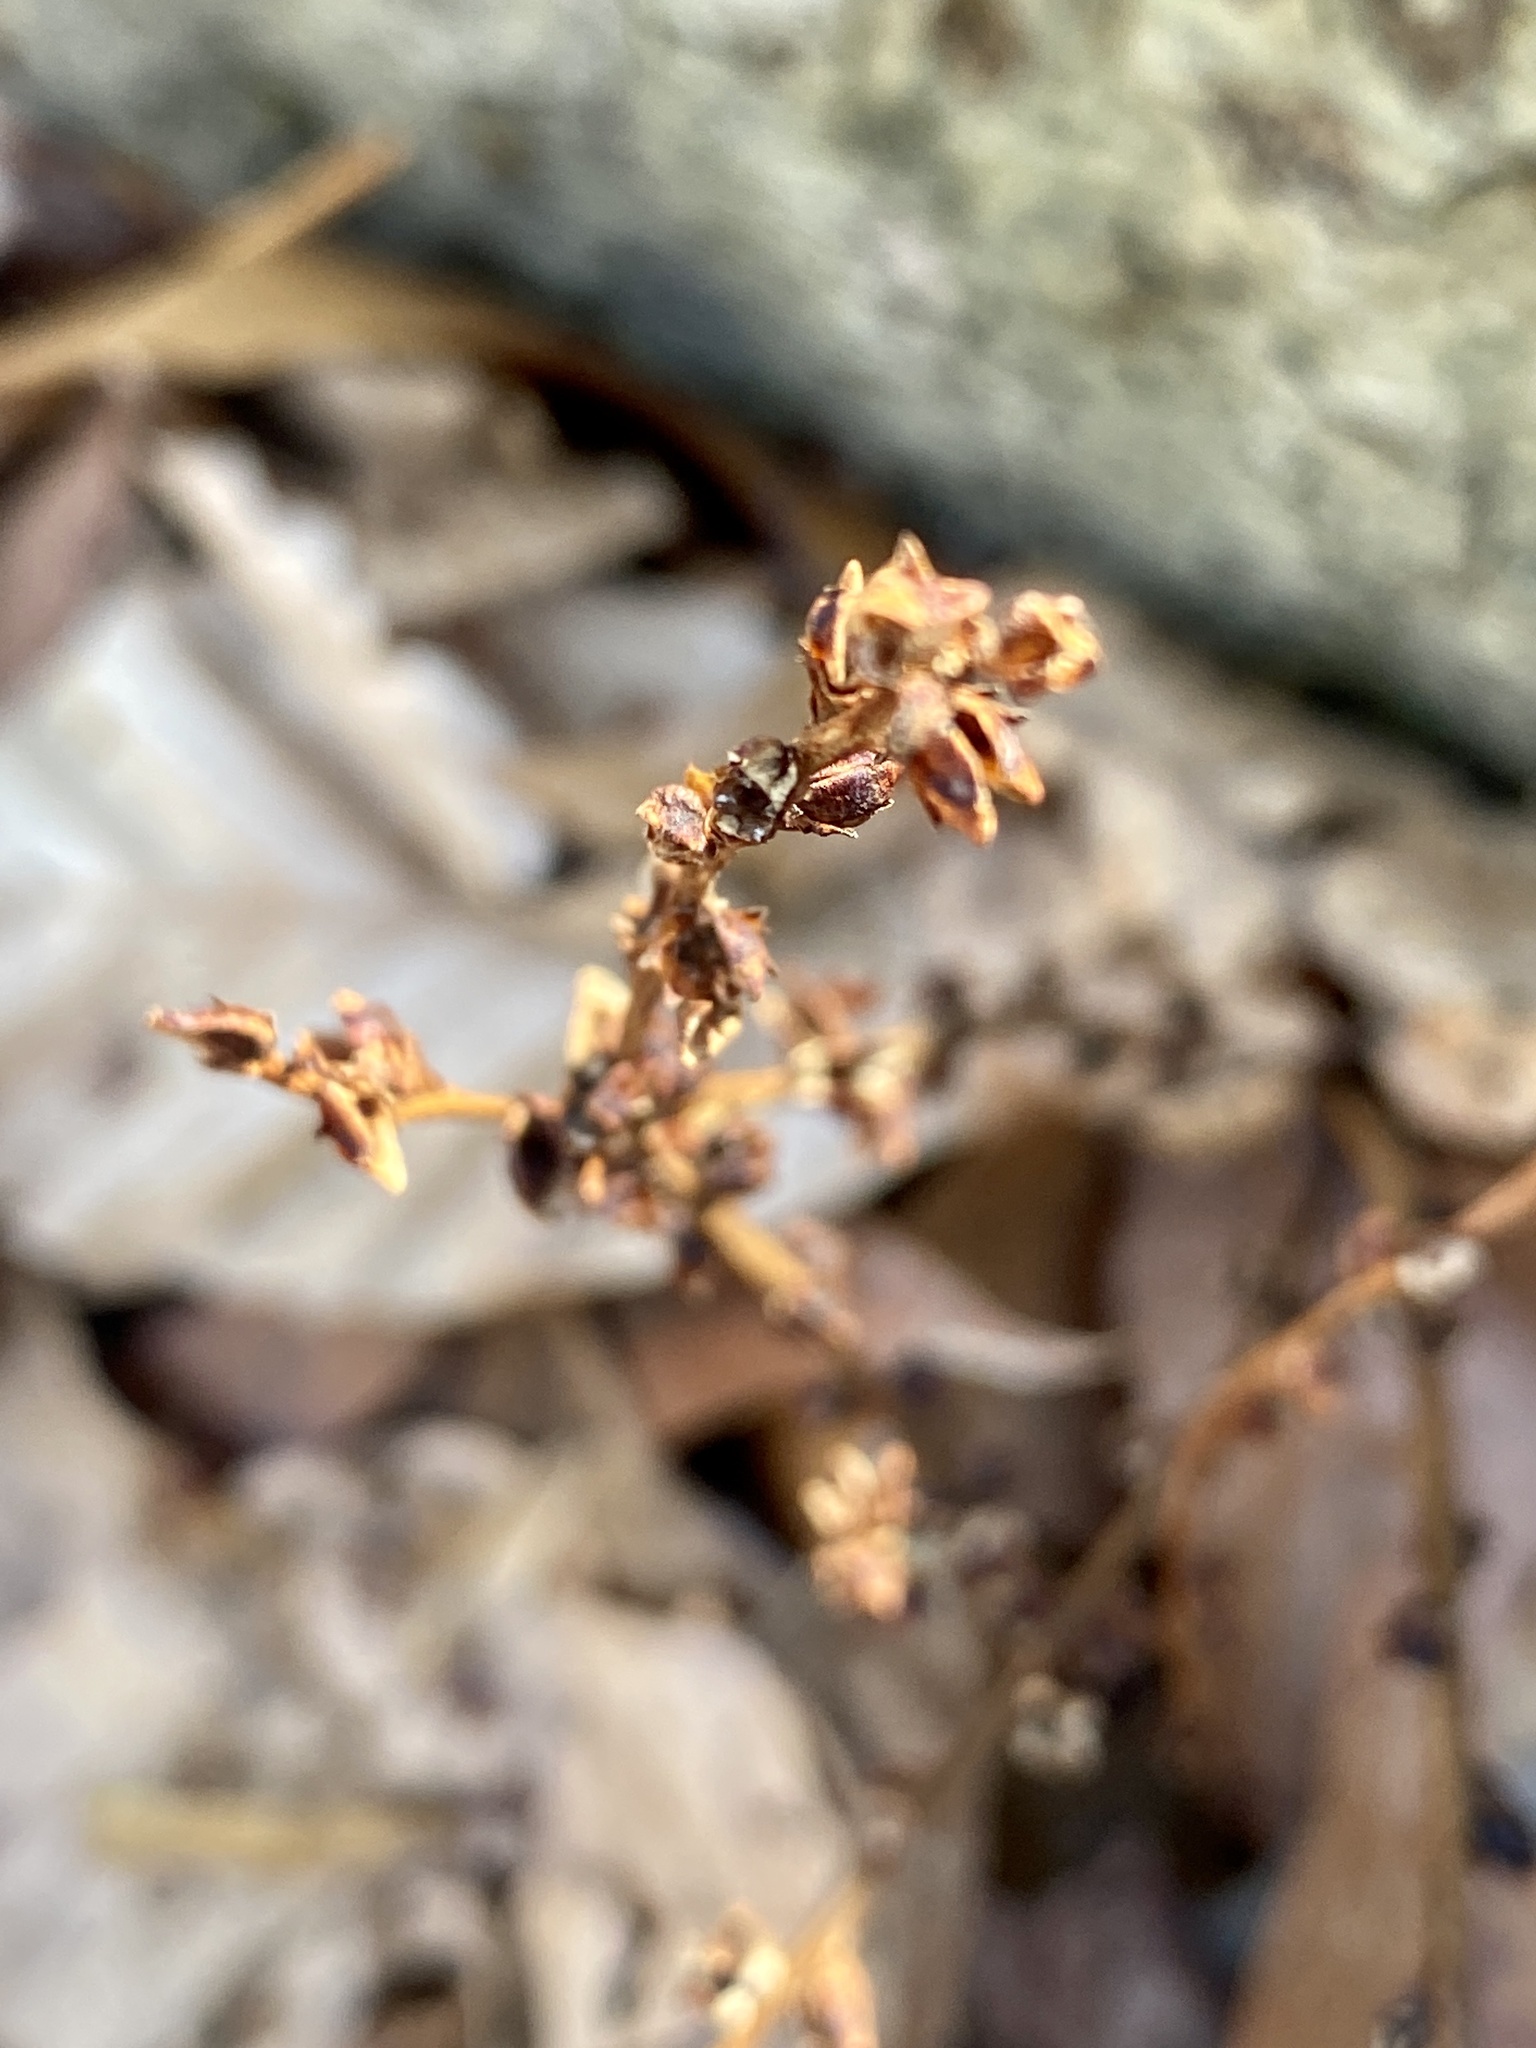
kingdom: Plantae
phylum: Tracheophyta
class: Magnoliopsida
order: Lamiales
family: Orobanchaceae
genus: Epifagus
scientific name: Epifagus virginiana
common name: Beechdrops
